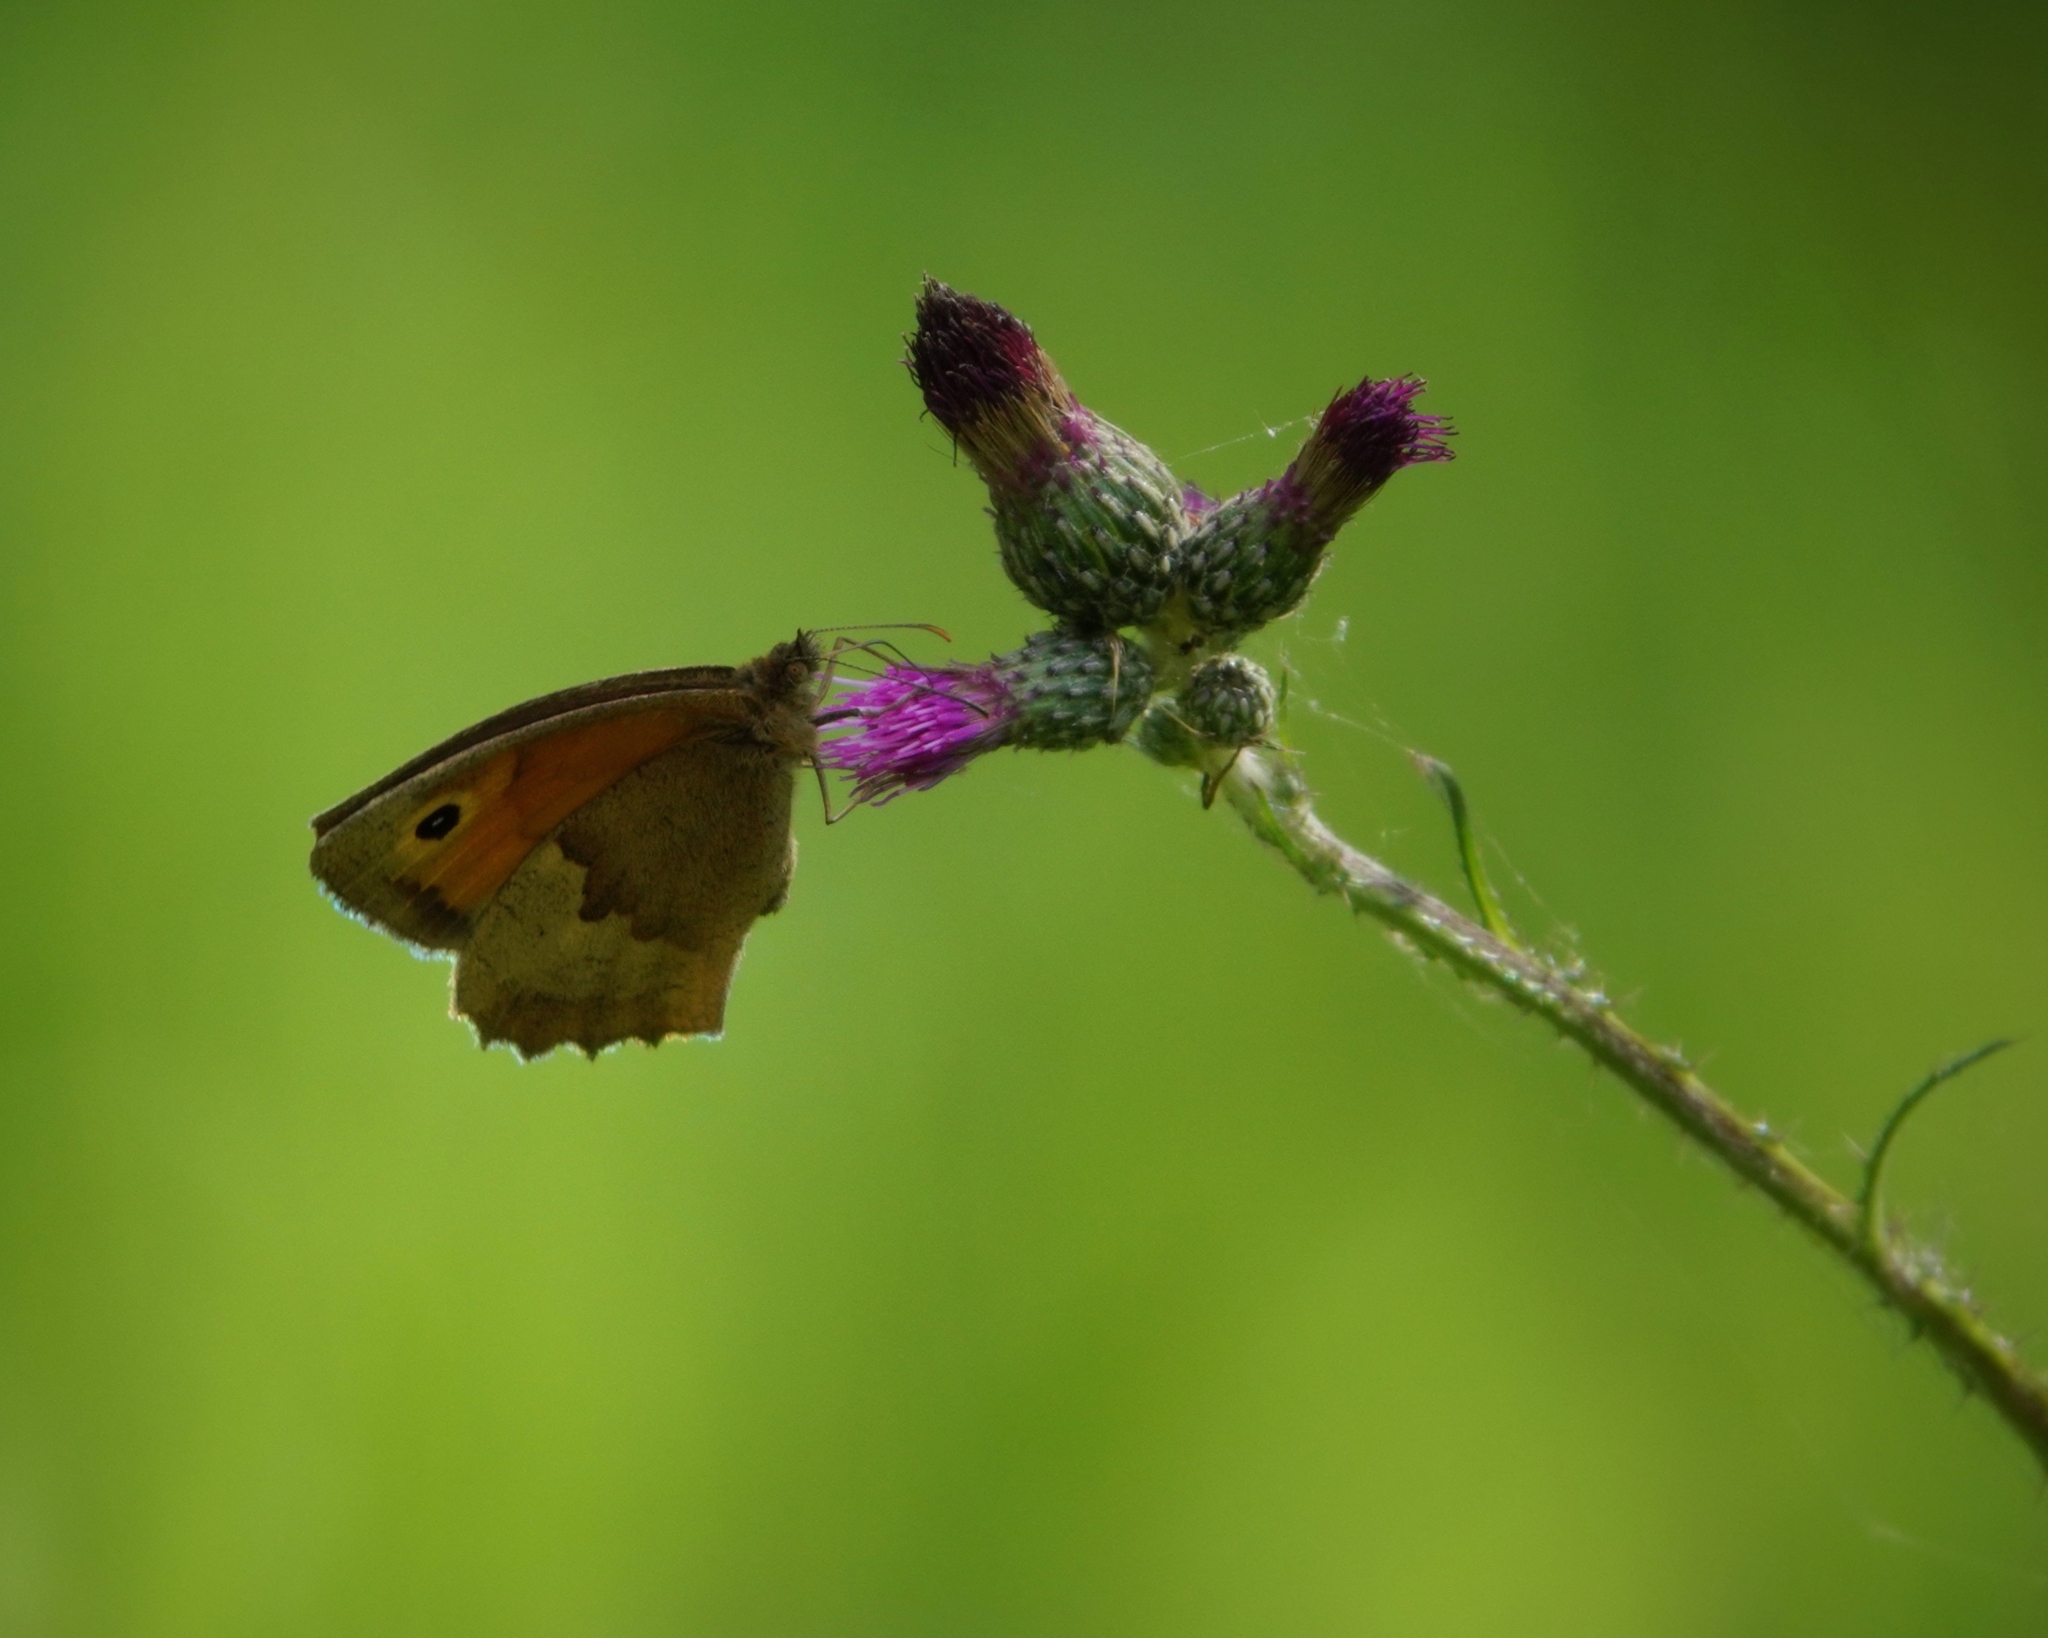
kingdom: Animalia
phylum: Arthropoda
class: Insecta
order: Lepidoptera
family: Nymphalidae
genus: Maniola
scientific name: Maniola jurtina
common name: Meadow brown
